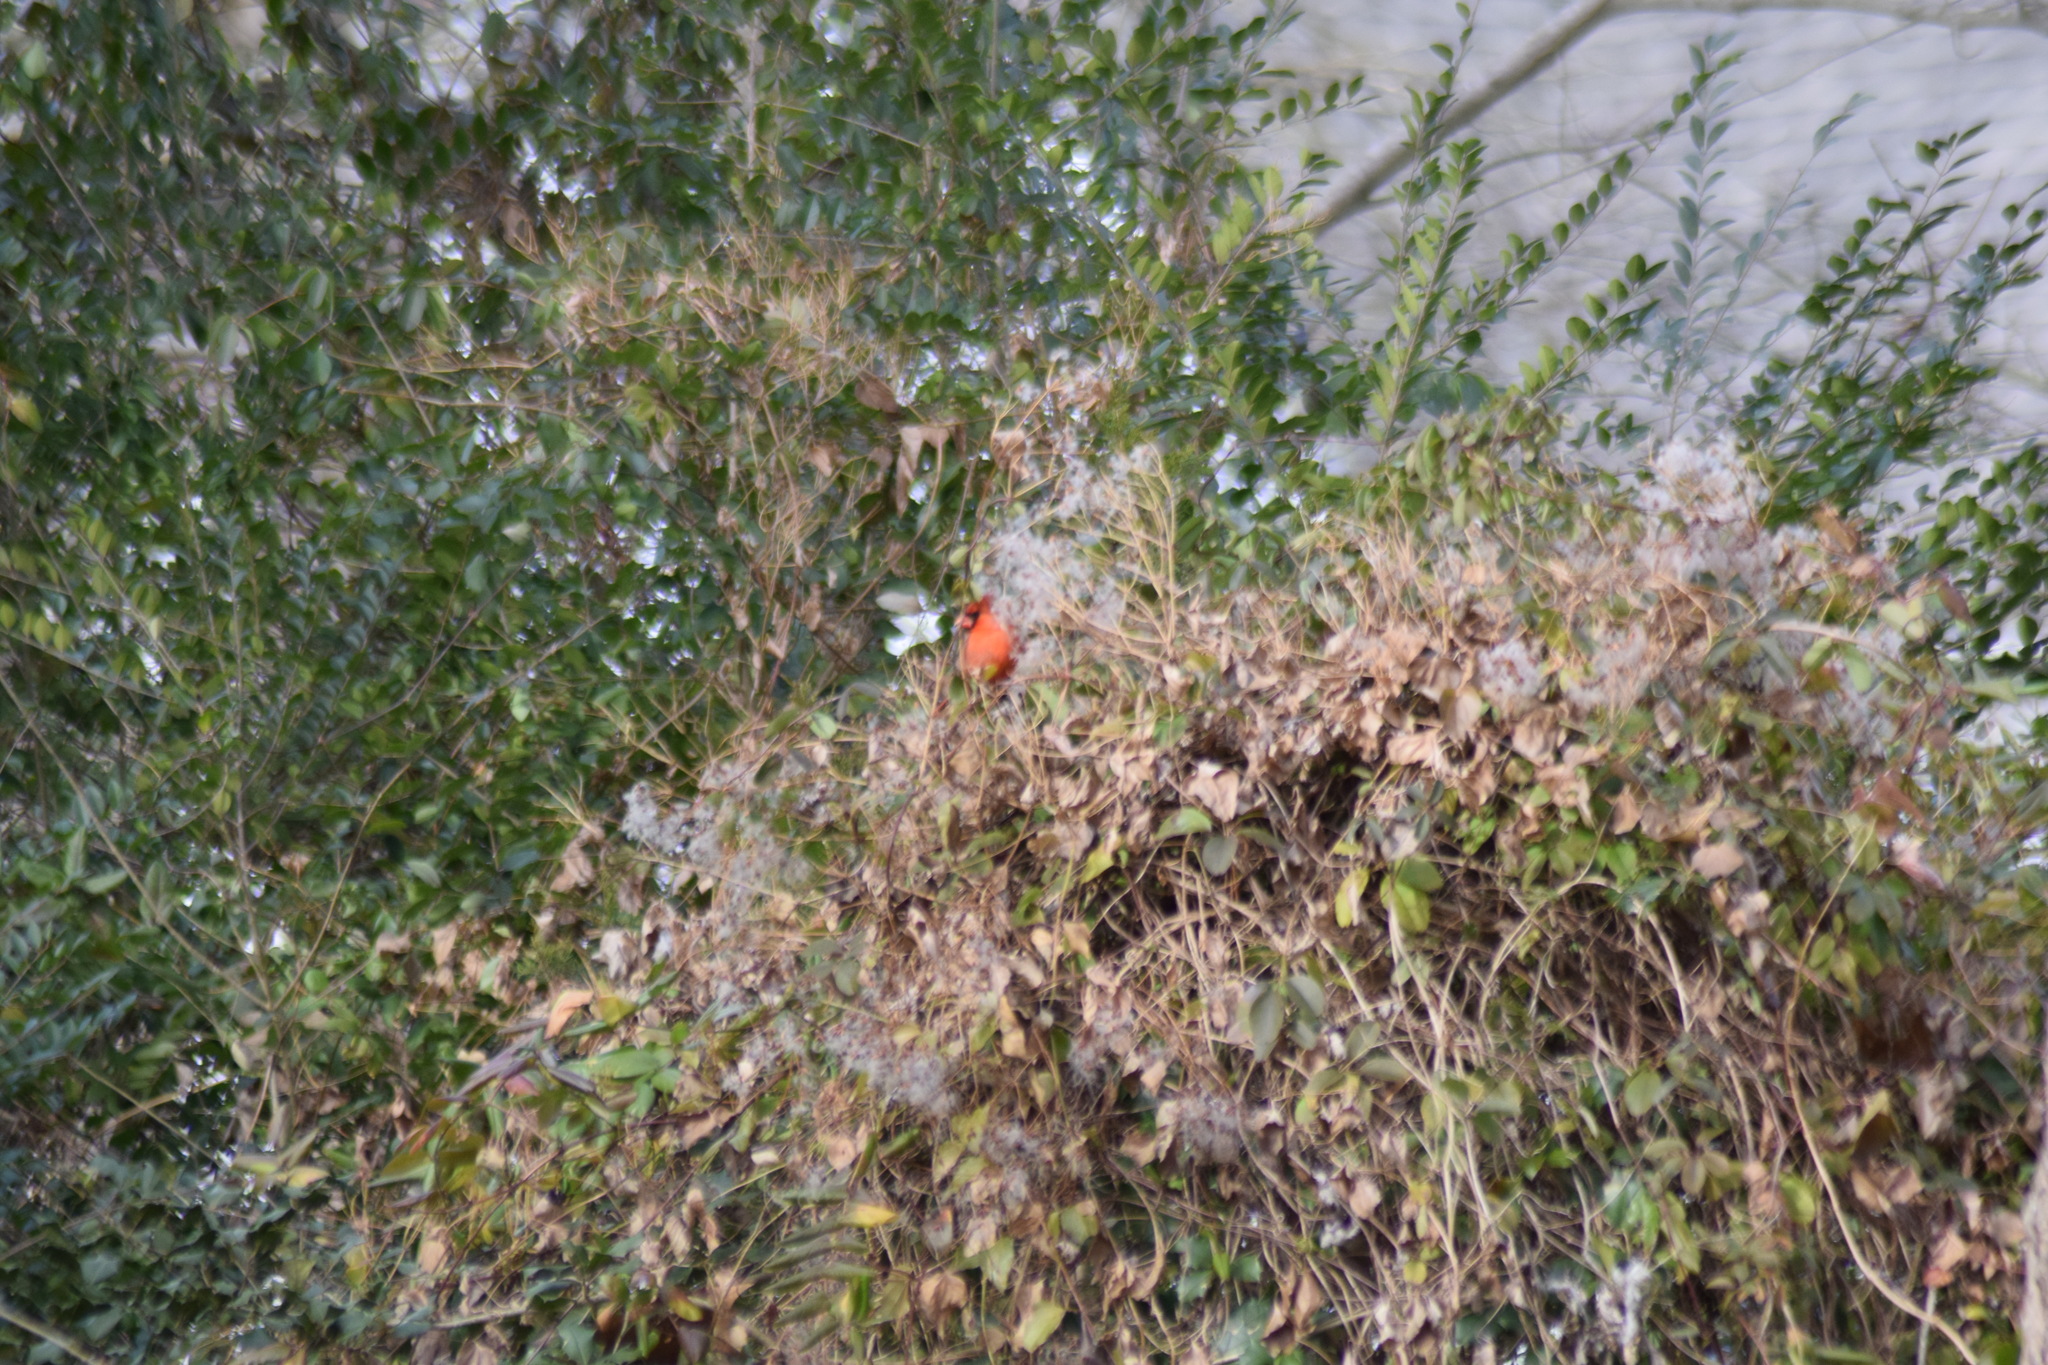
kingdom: Animalia
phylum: Chordata
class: Aves
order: Passeriformes
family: Cardinalidae
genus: Cardinalis
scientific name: Cardinalis cardinalis
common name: Northern cardinal
